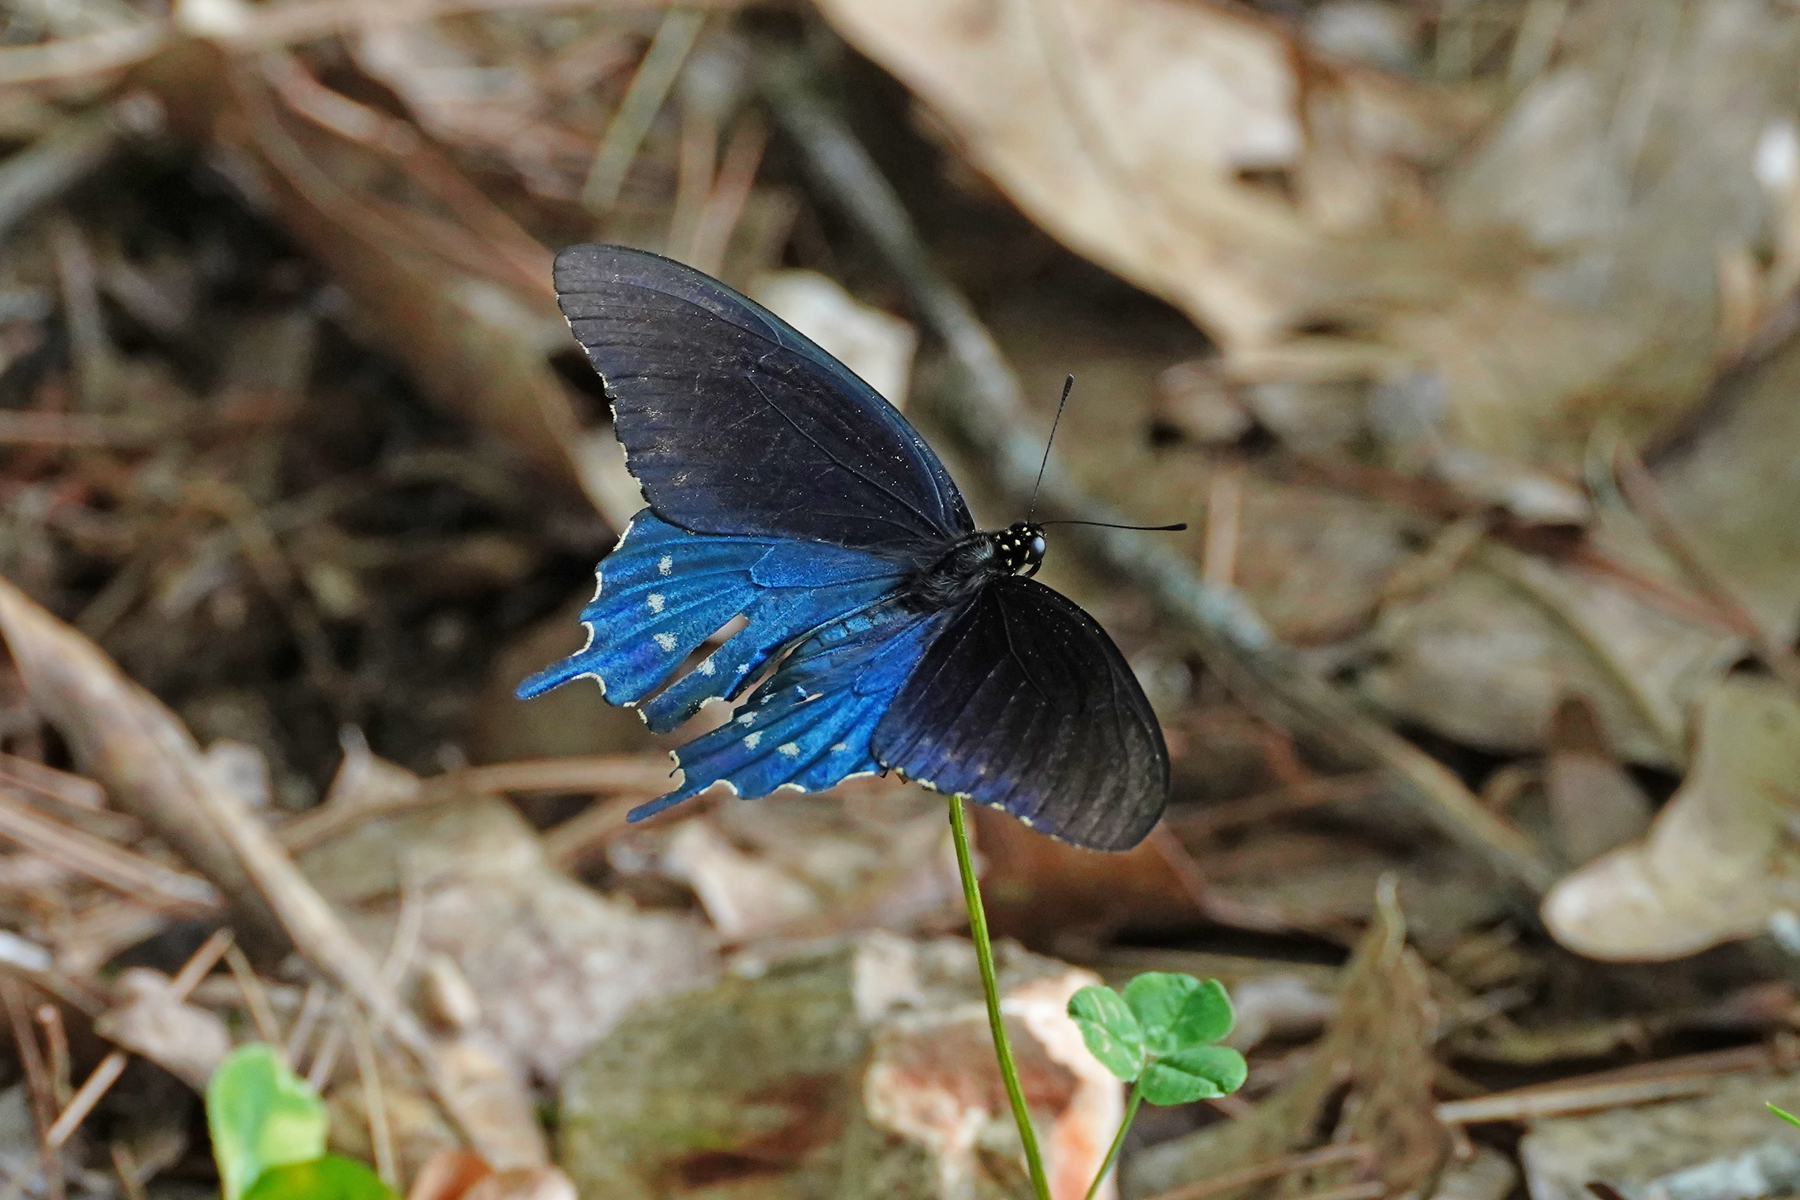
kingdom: Animalia
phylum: Arthropoda
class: Insecta
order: Lepidoptera
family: Papilionidae
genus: Battus
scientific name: Battus philenor
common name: Pipevine swallowtail
